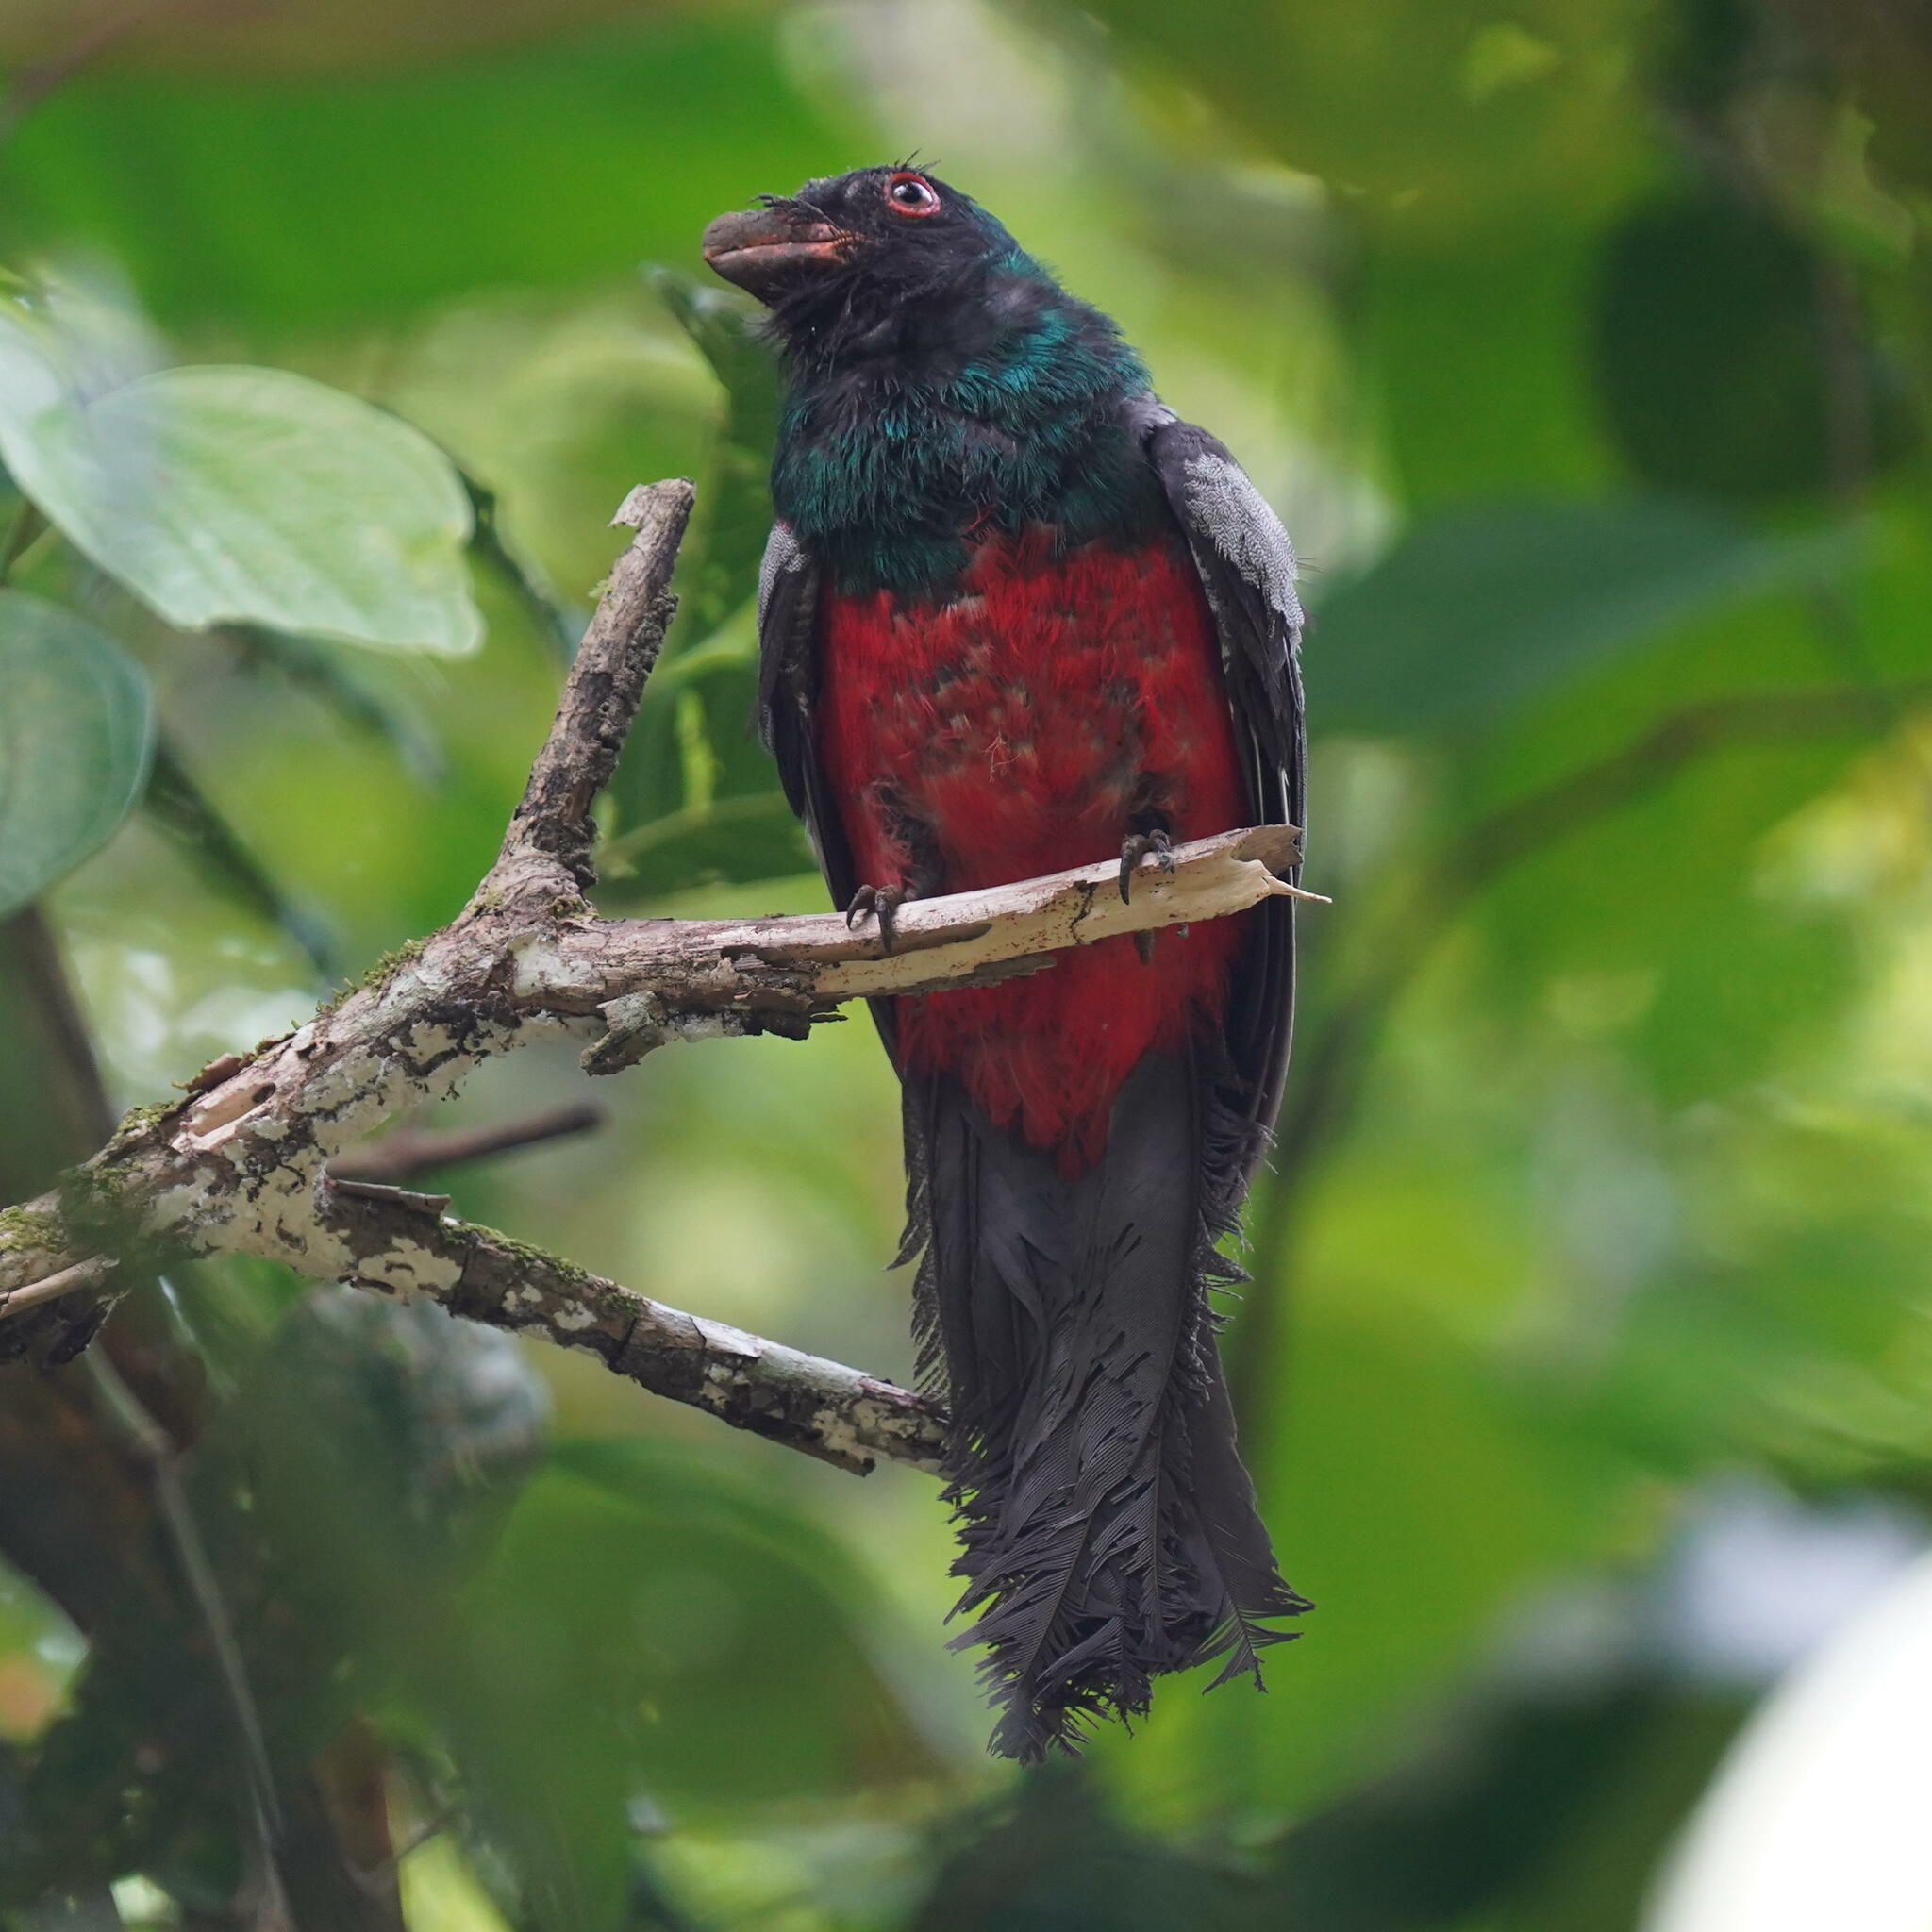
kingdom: Animalia
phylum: Chordata
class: Aves
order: Trogoniformes
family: Trogonidae
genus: Trogon
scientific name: Trogon massena
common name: Slaty-tailed trogon
